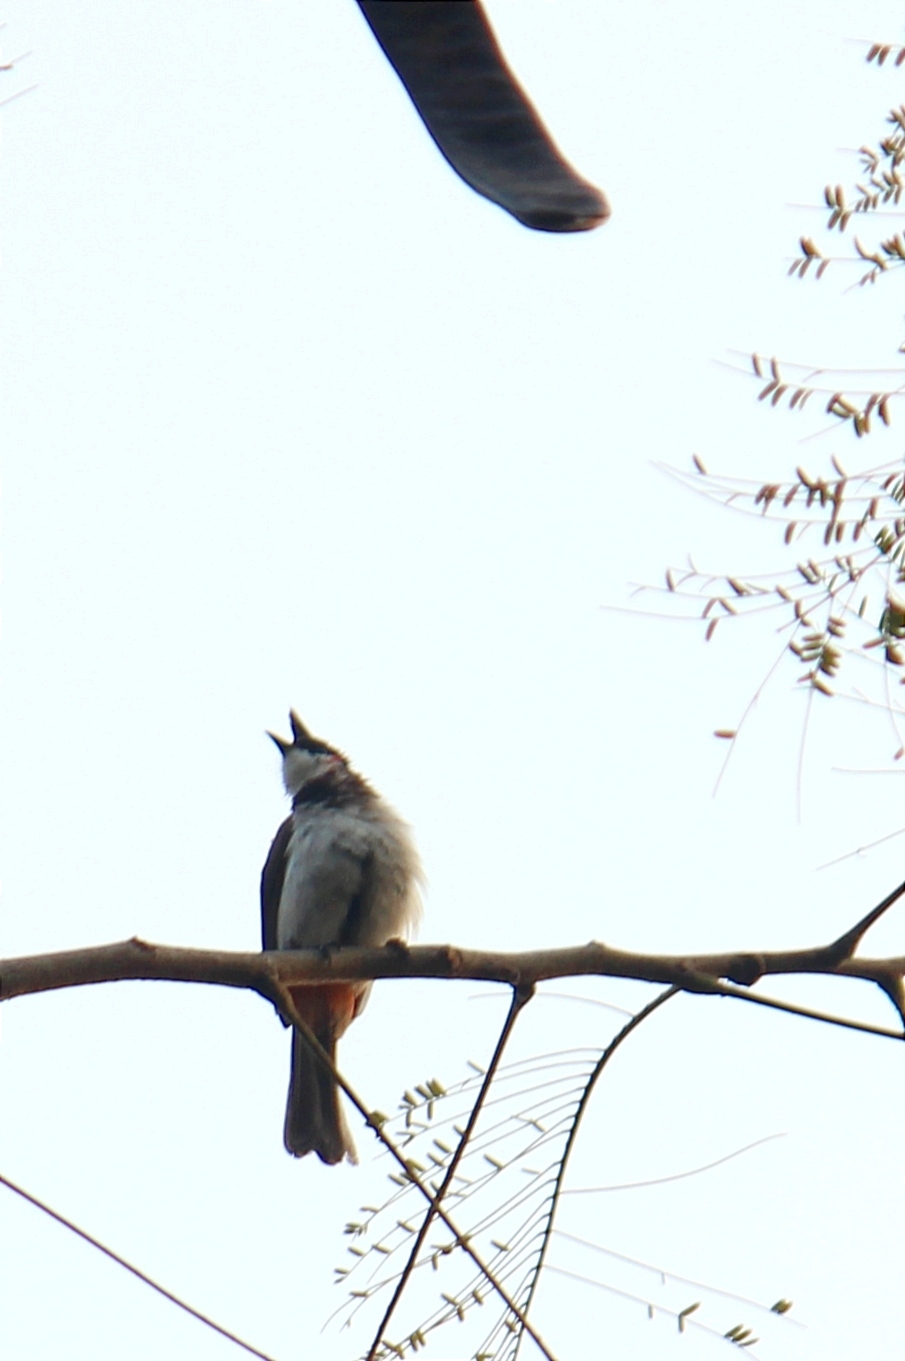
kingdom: Animalia
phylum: Chordata
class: Aves
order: Passeriformes
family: Pycnonotidae
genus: Pycnonotus
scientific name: Pycnonotus jocosus
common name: Red-whiskered bulbul
